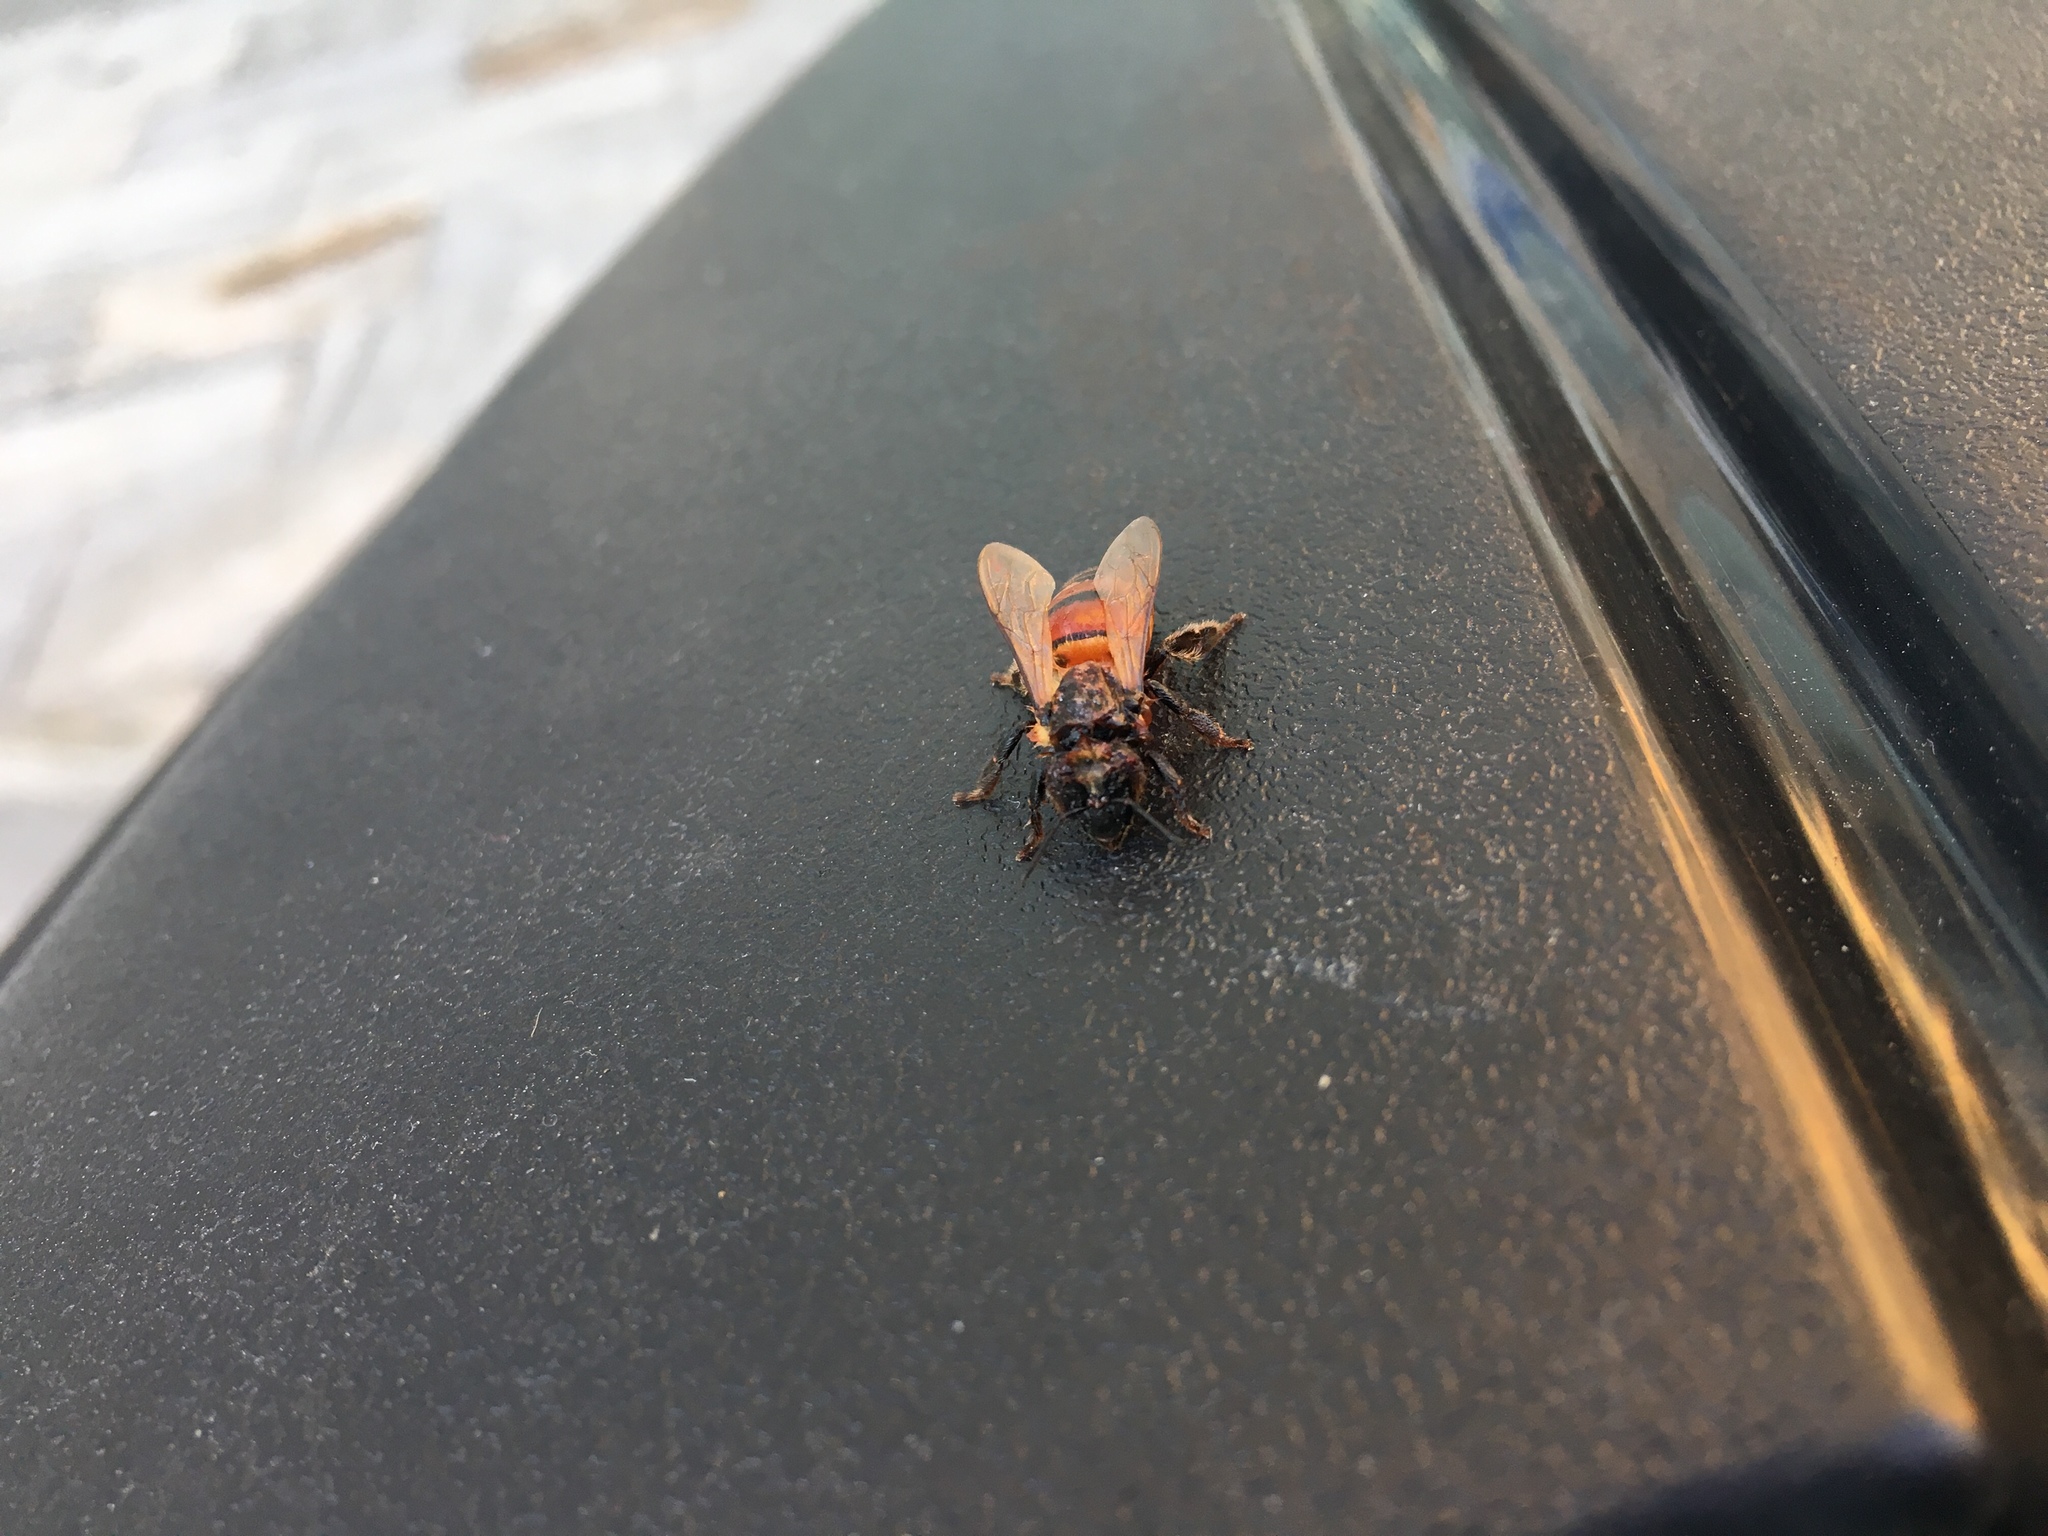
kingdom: Animalia
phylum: Arthropoda
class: Insecta
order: Hymenoptera
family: Apidae
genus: Apis
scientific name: Apis mellifera
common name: Honey bee
